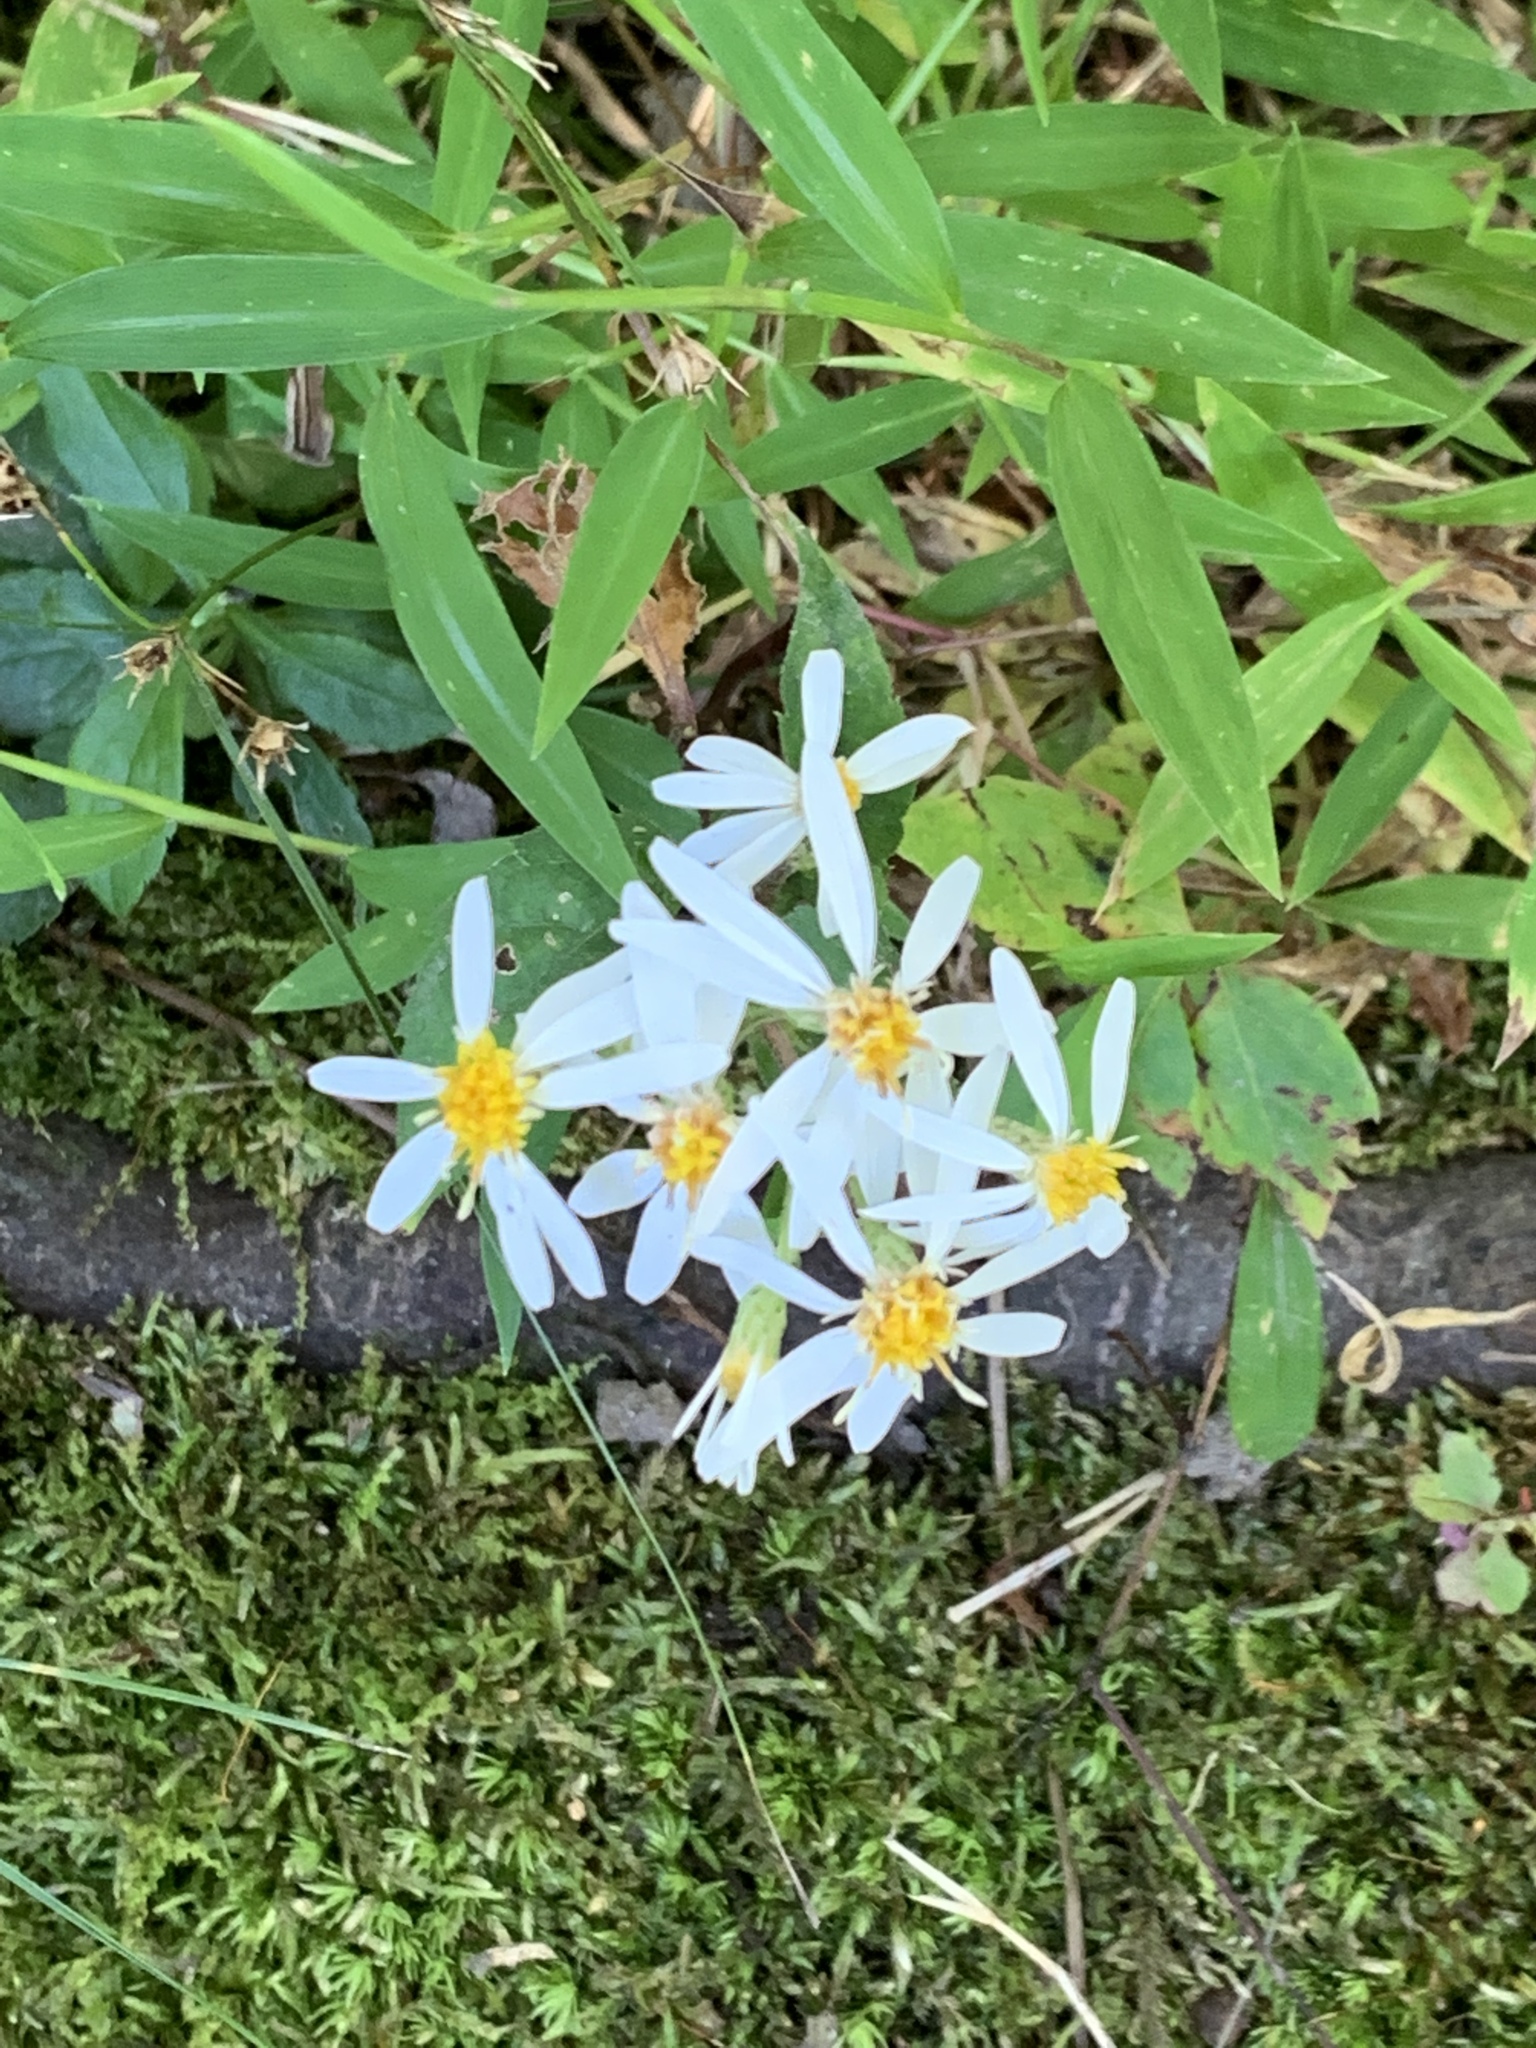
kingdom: Plantae
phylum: Tracheophyta
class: Magnoliopsida
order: Asterales
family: Asteraceae
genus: Eurybia
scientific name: Eurybia divaricata
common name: White wood aster
